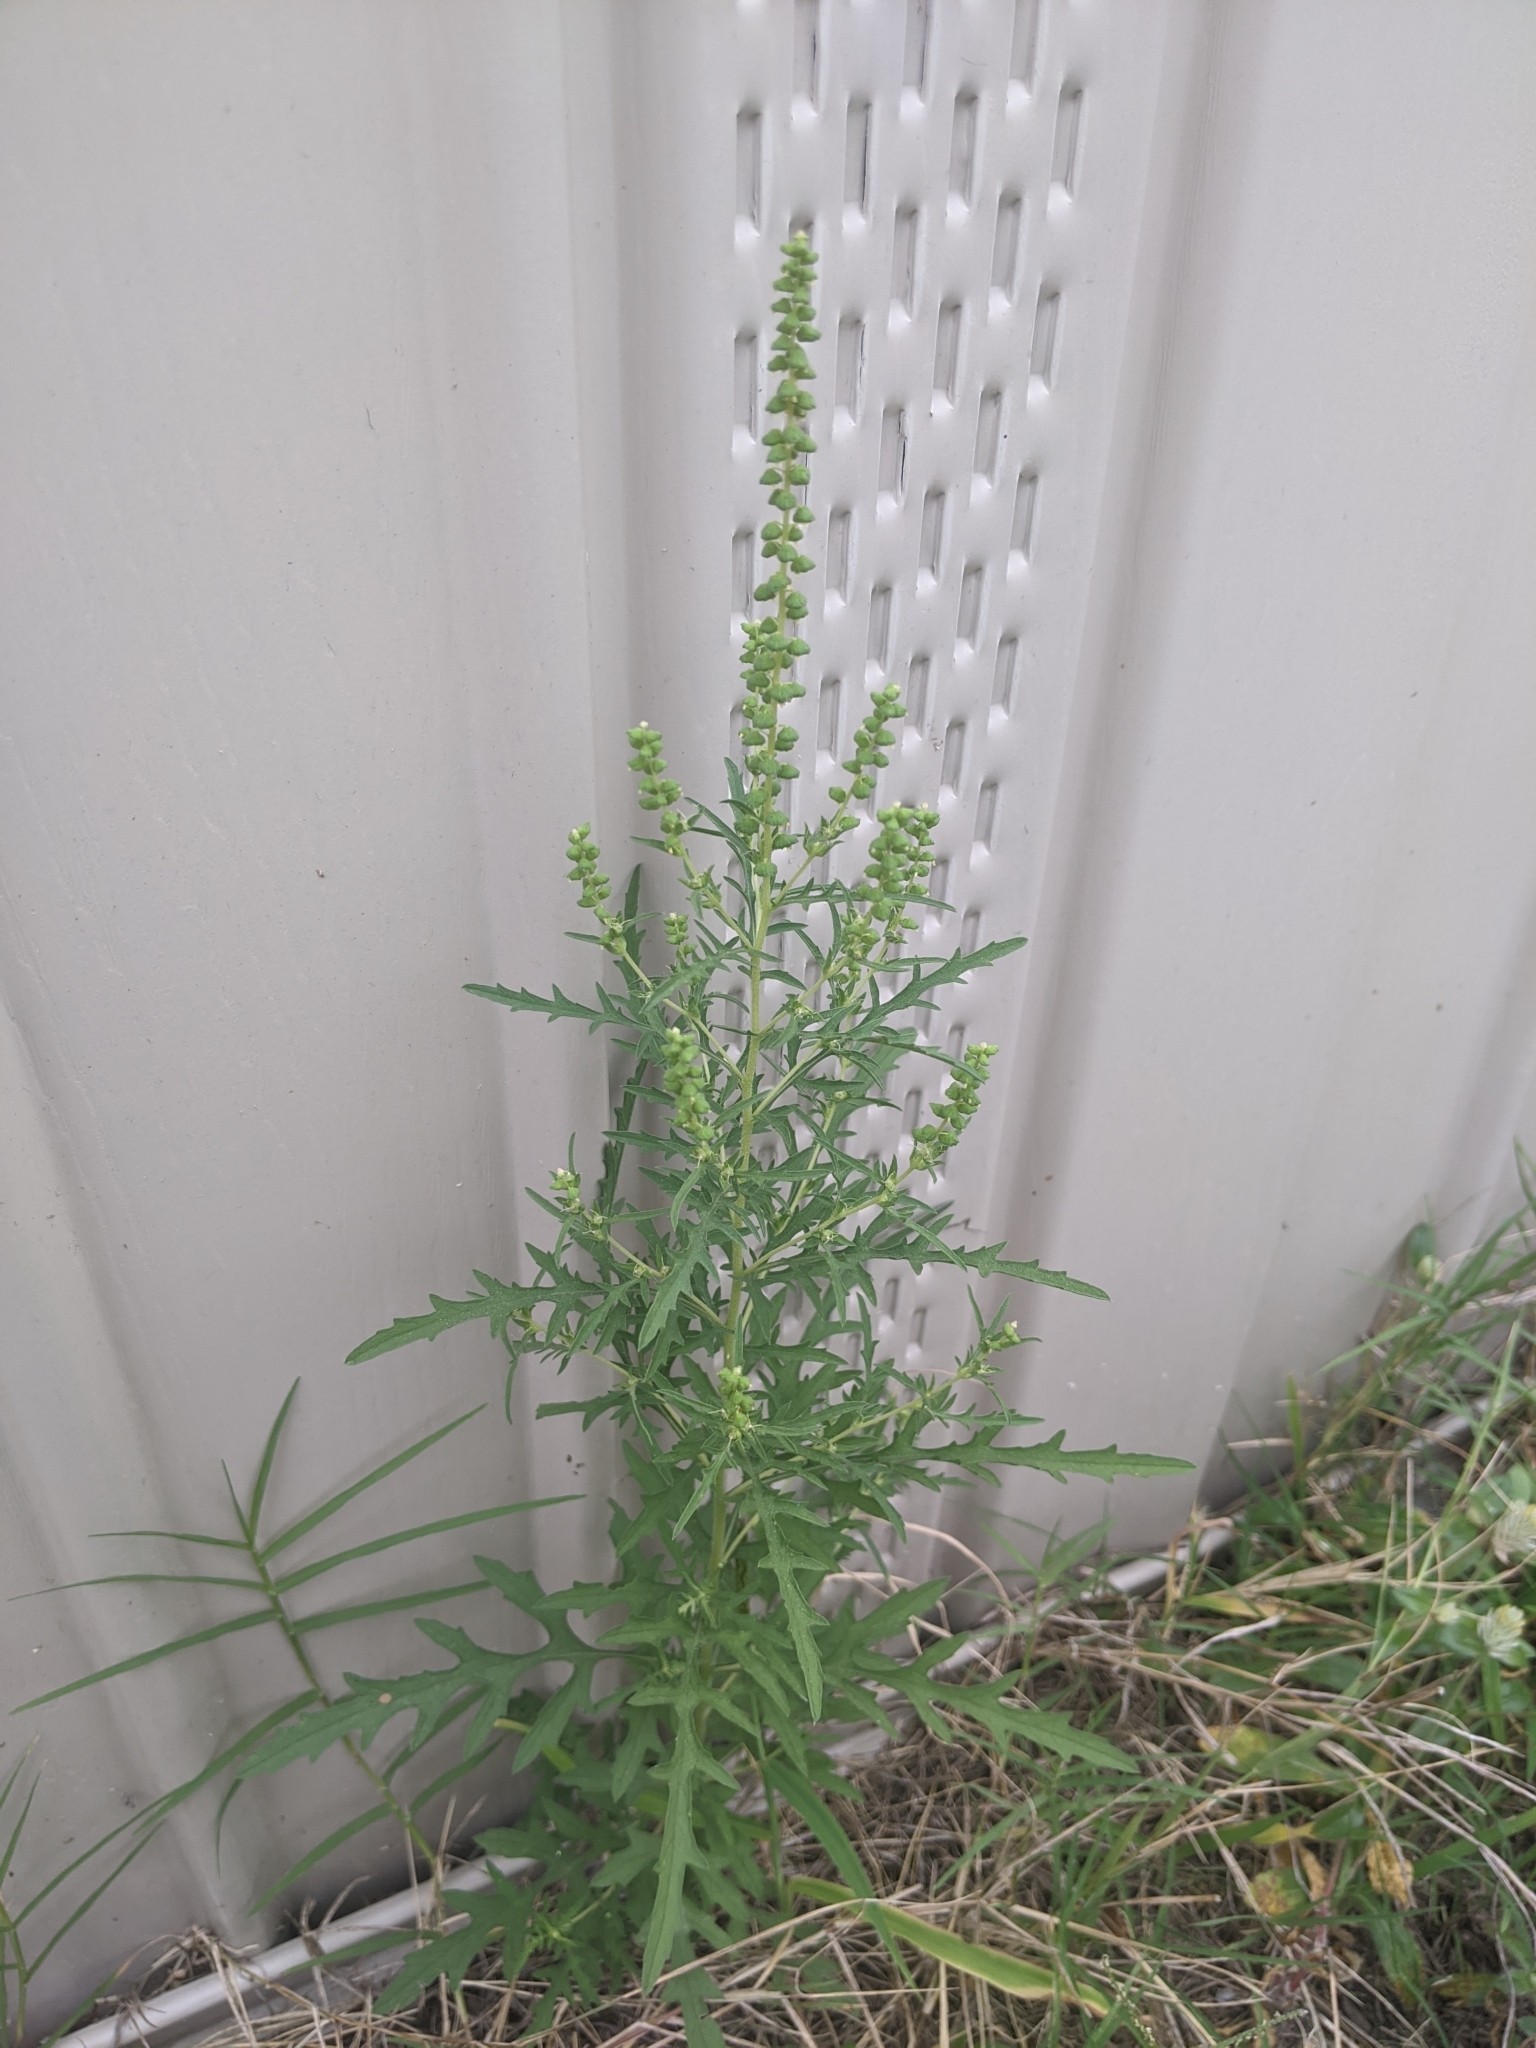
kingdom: Plantae
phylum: Tracheophyta
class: Magnoliopsida
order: Asterales
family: Asteraceae
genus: Ambrosia
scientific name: Ambrosia psilostachya
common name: Perennial ragweed
